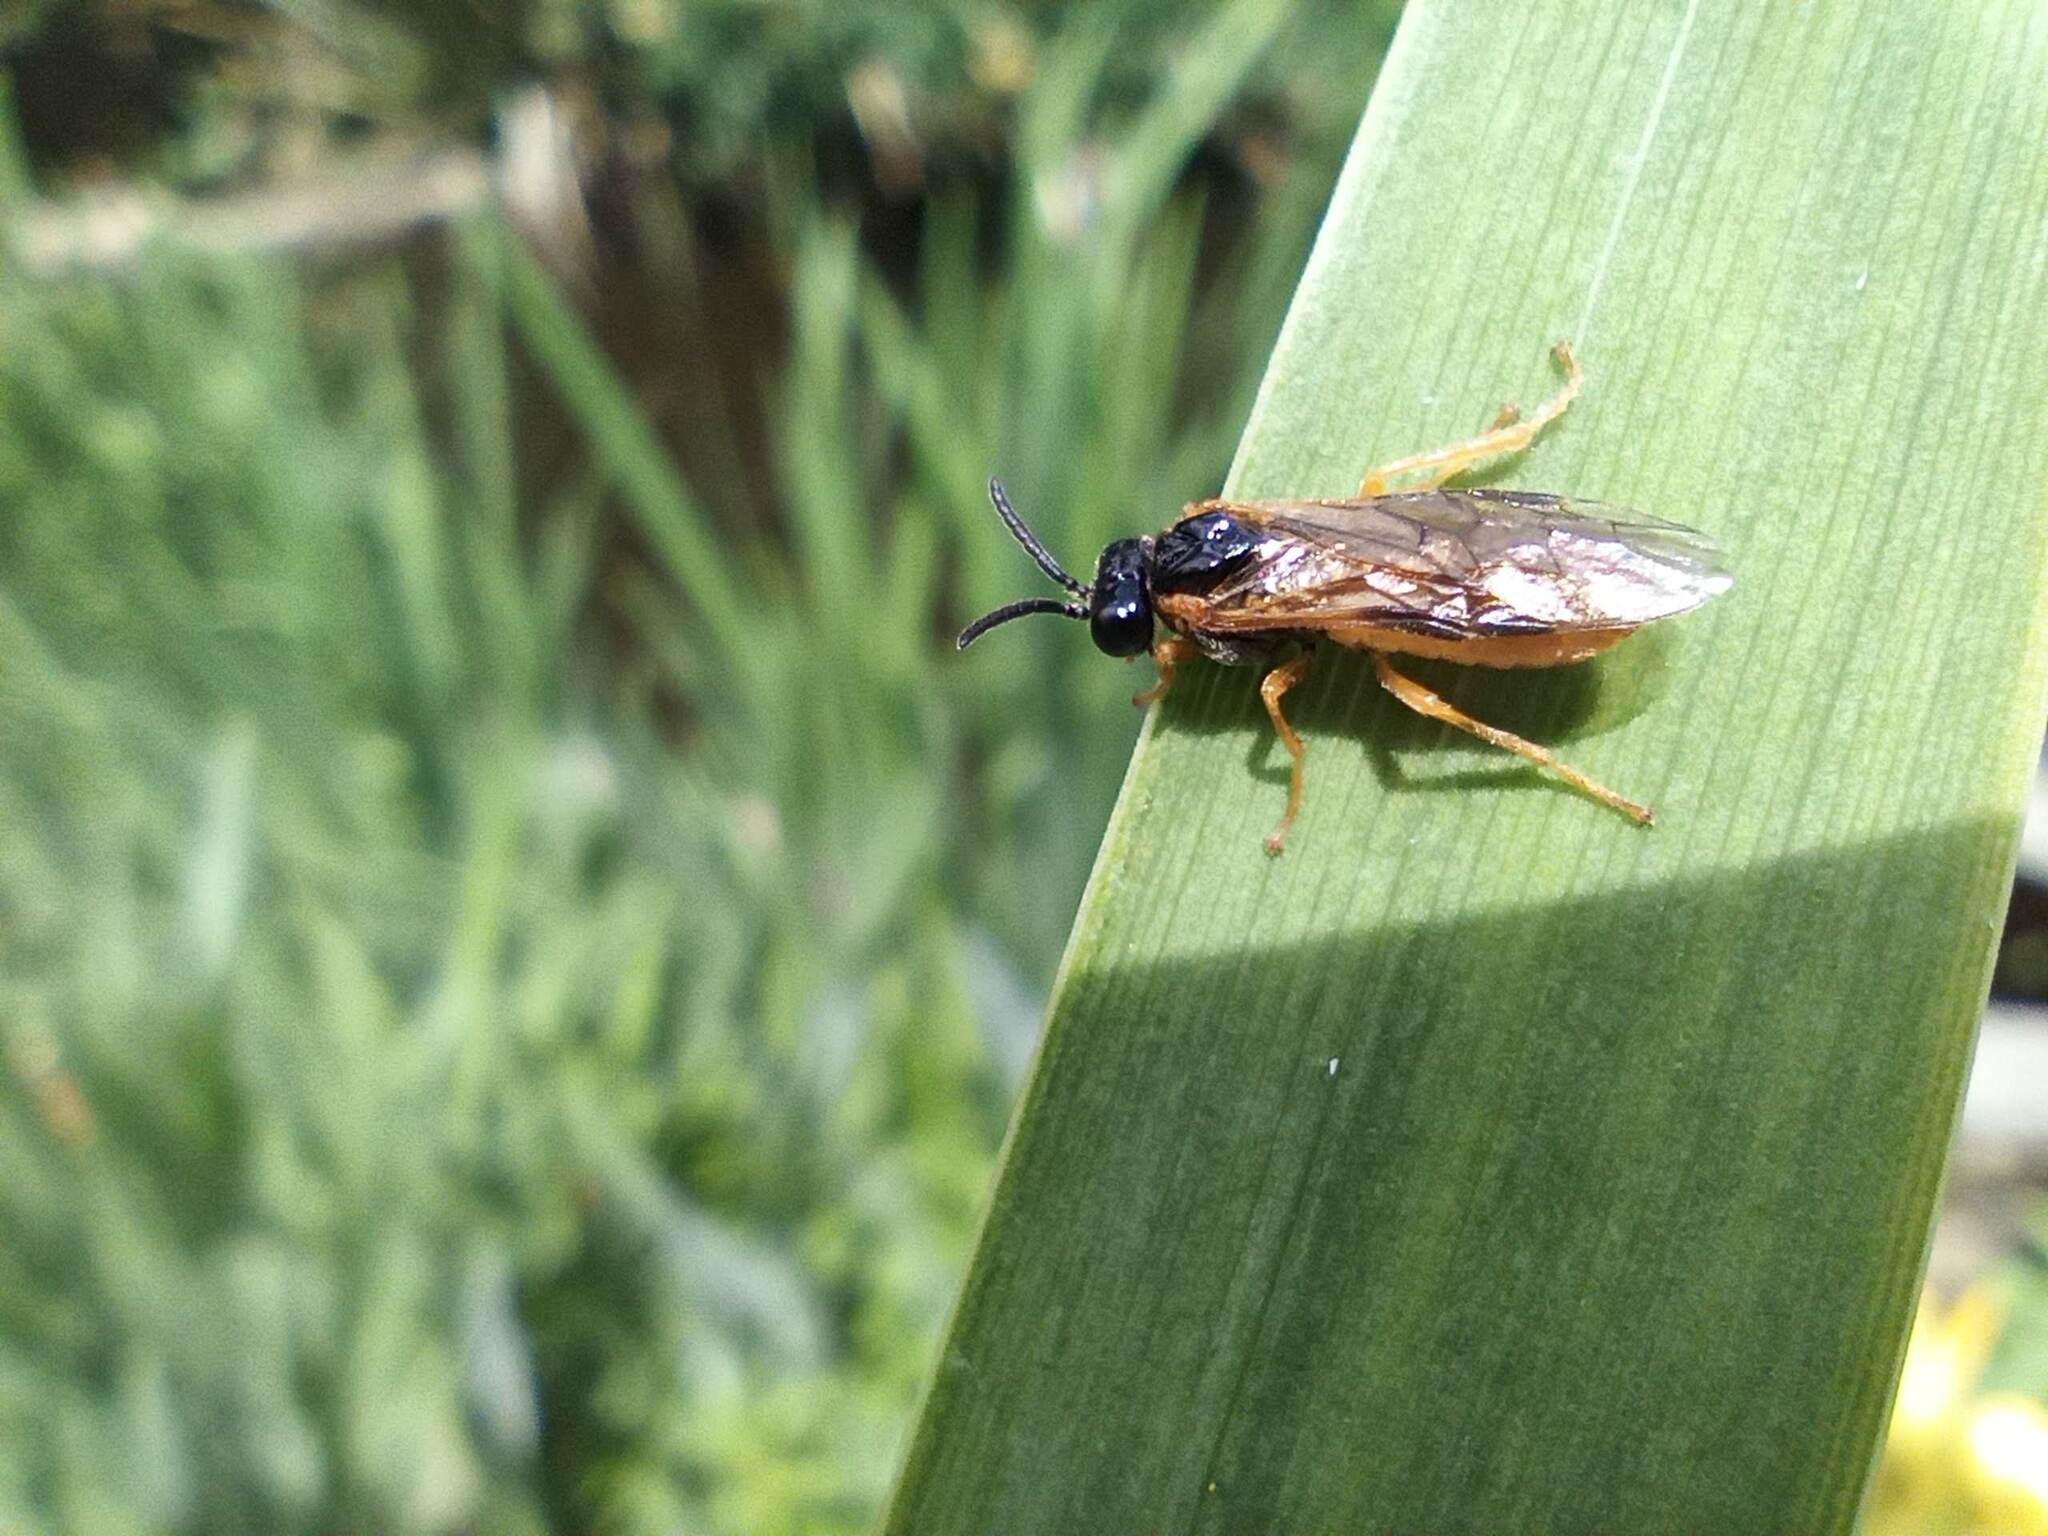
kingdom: Animalia
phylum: Arthropoda
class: Insecta
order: Hymenoptera
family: Tenthredinidae
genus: Selandria
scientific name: Selandria serva
